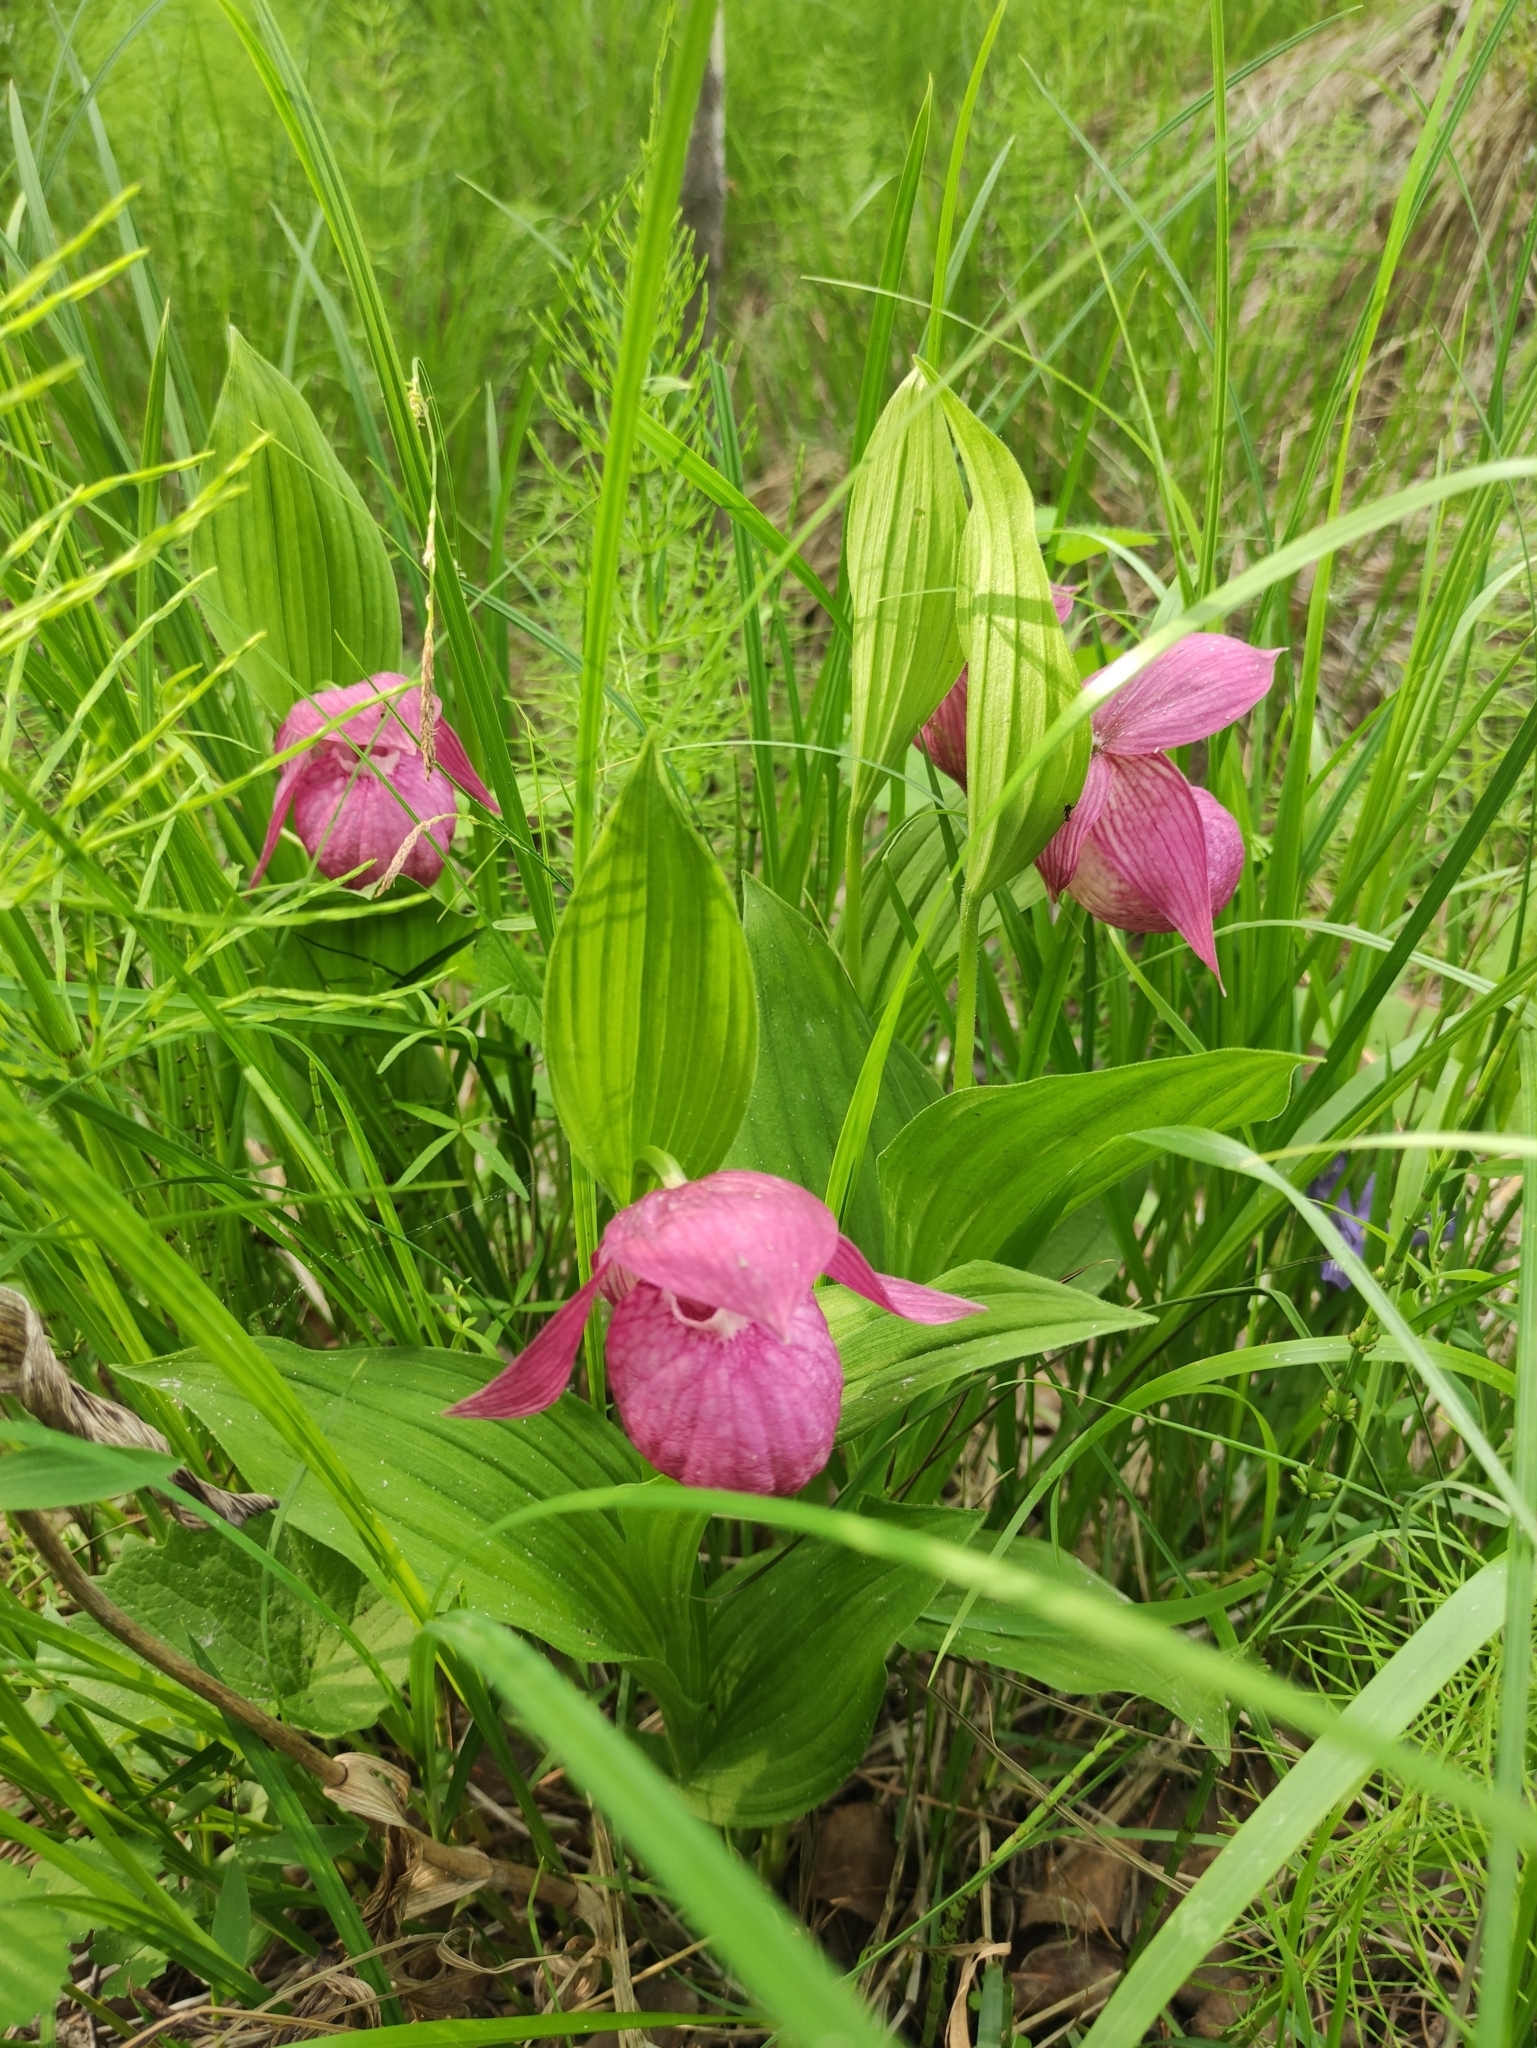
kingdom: Plantae
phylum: Tracheophyta
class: Liliopsida
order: Asparagales
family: Orchidaceae
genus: Cypripedium
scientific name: Cypripedium macranthos
